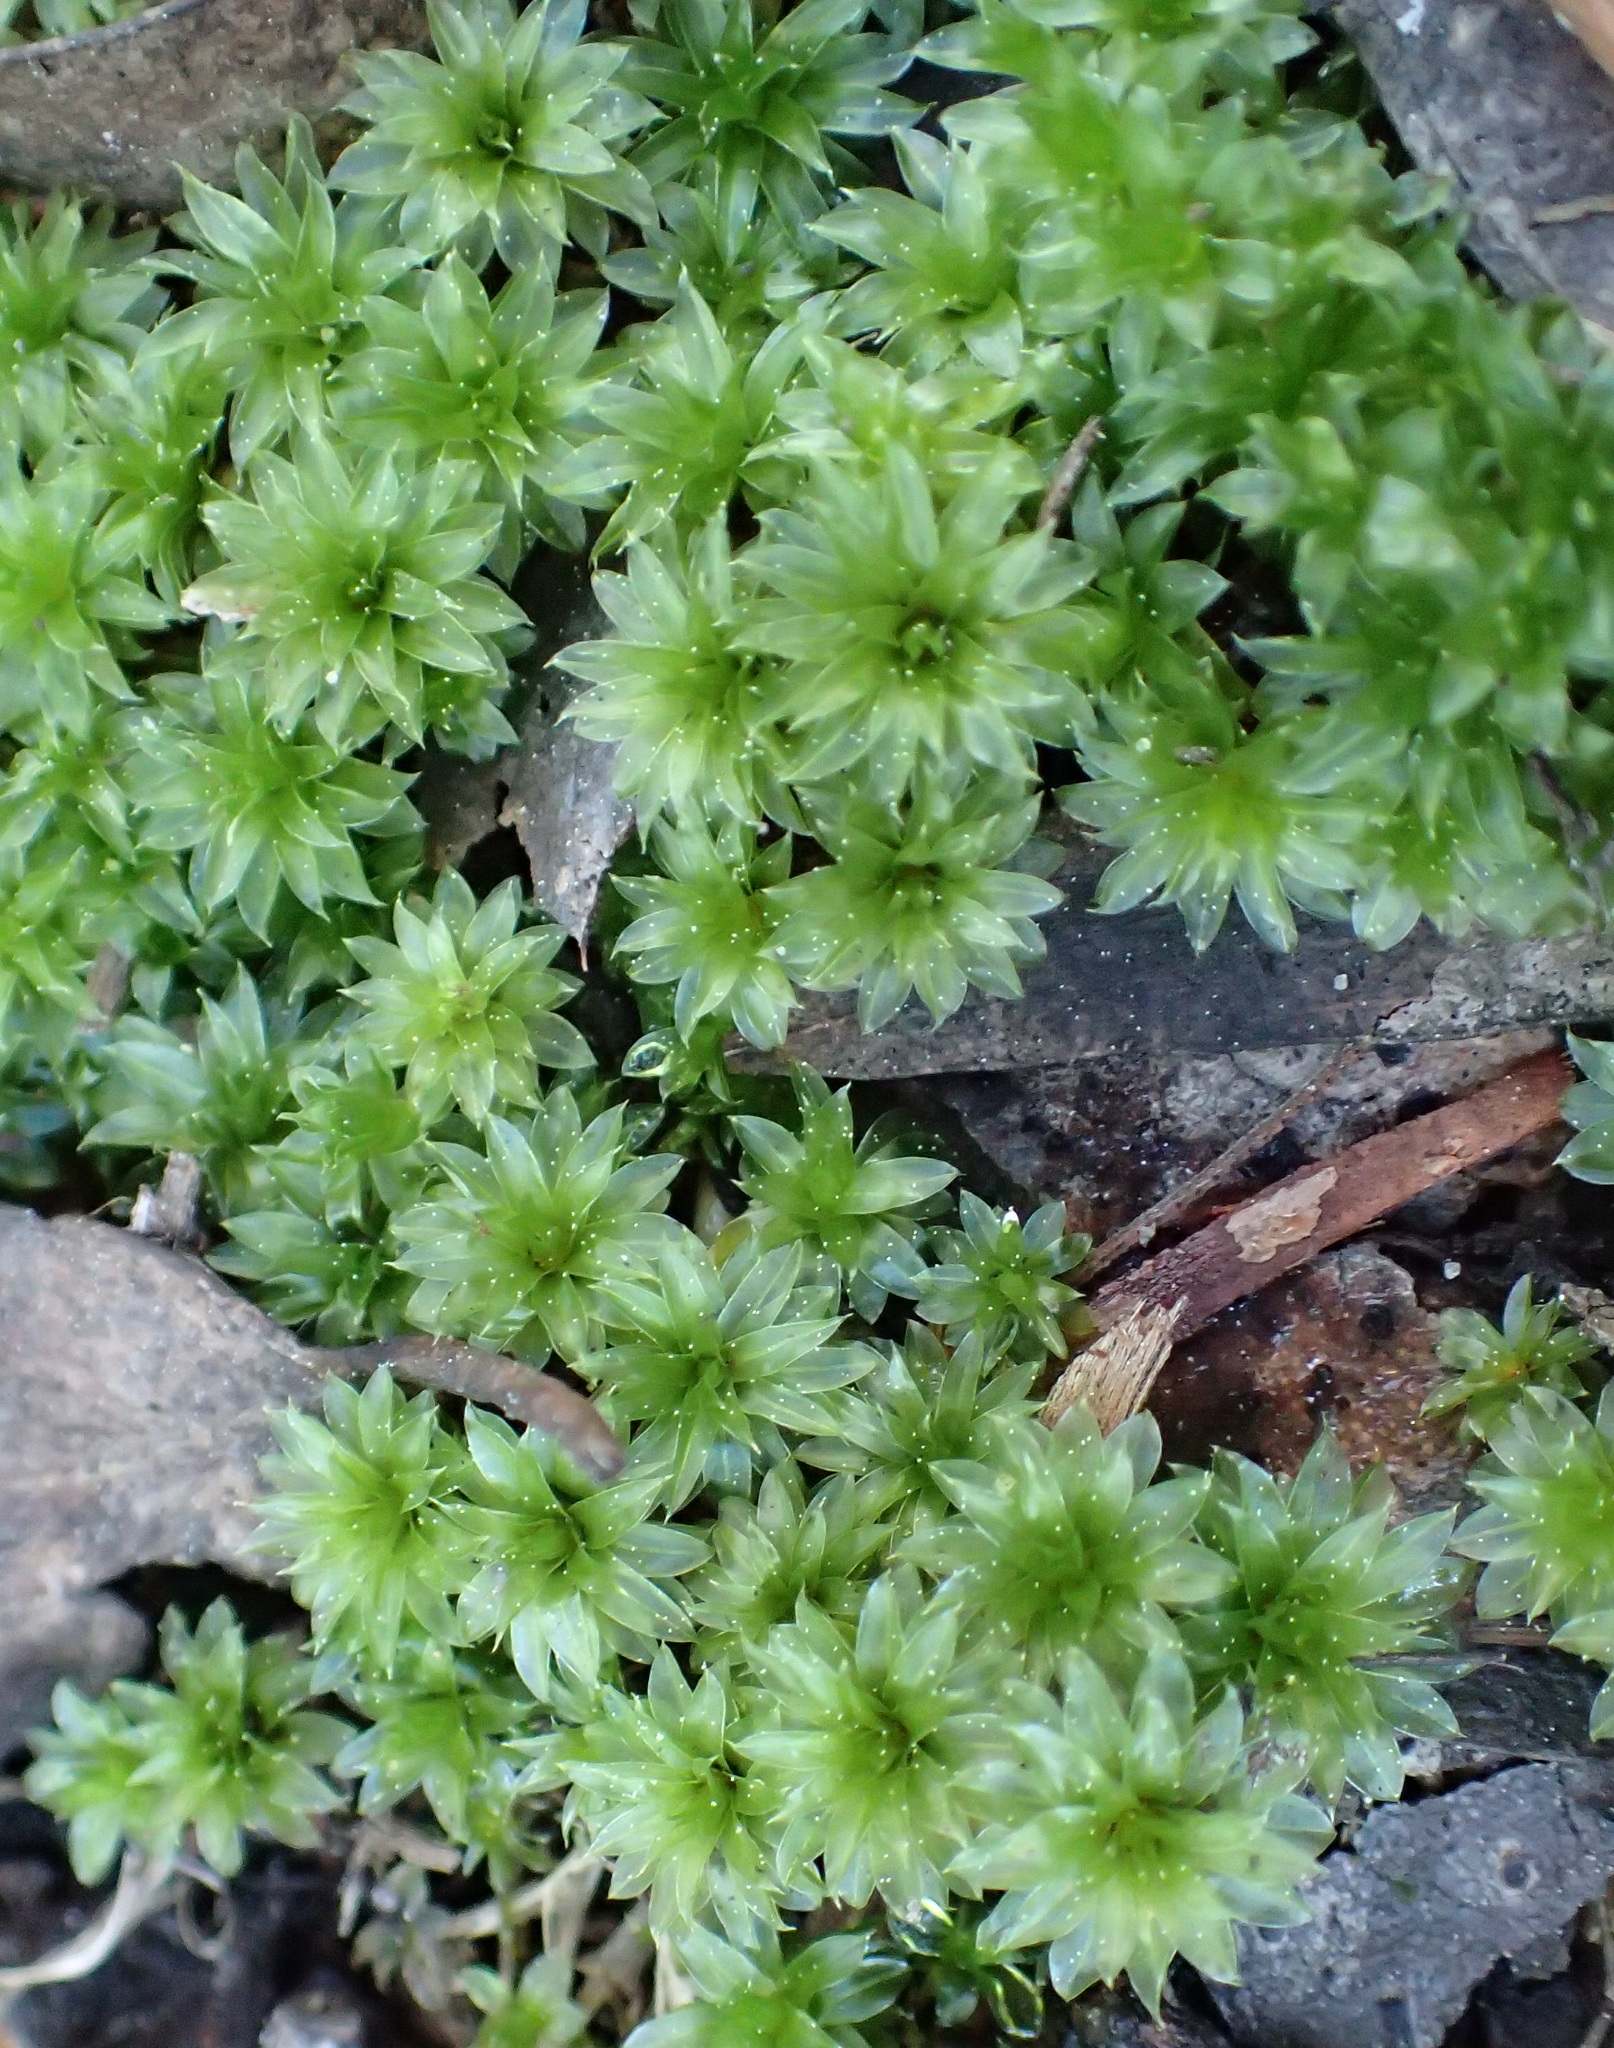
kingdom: Plantae
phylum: Bryophyta
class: Bryopsida
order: Bryales
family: Bryaceae
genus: Rosulabryum
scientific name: Rosulabryum billardierei
